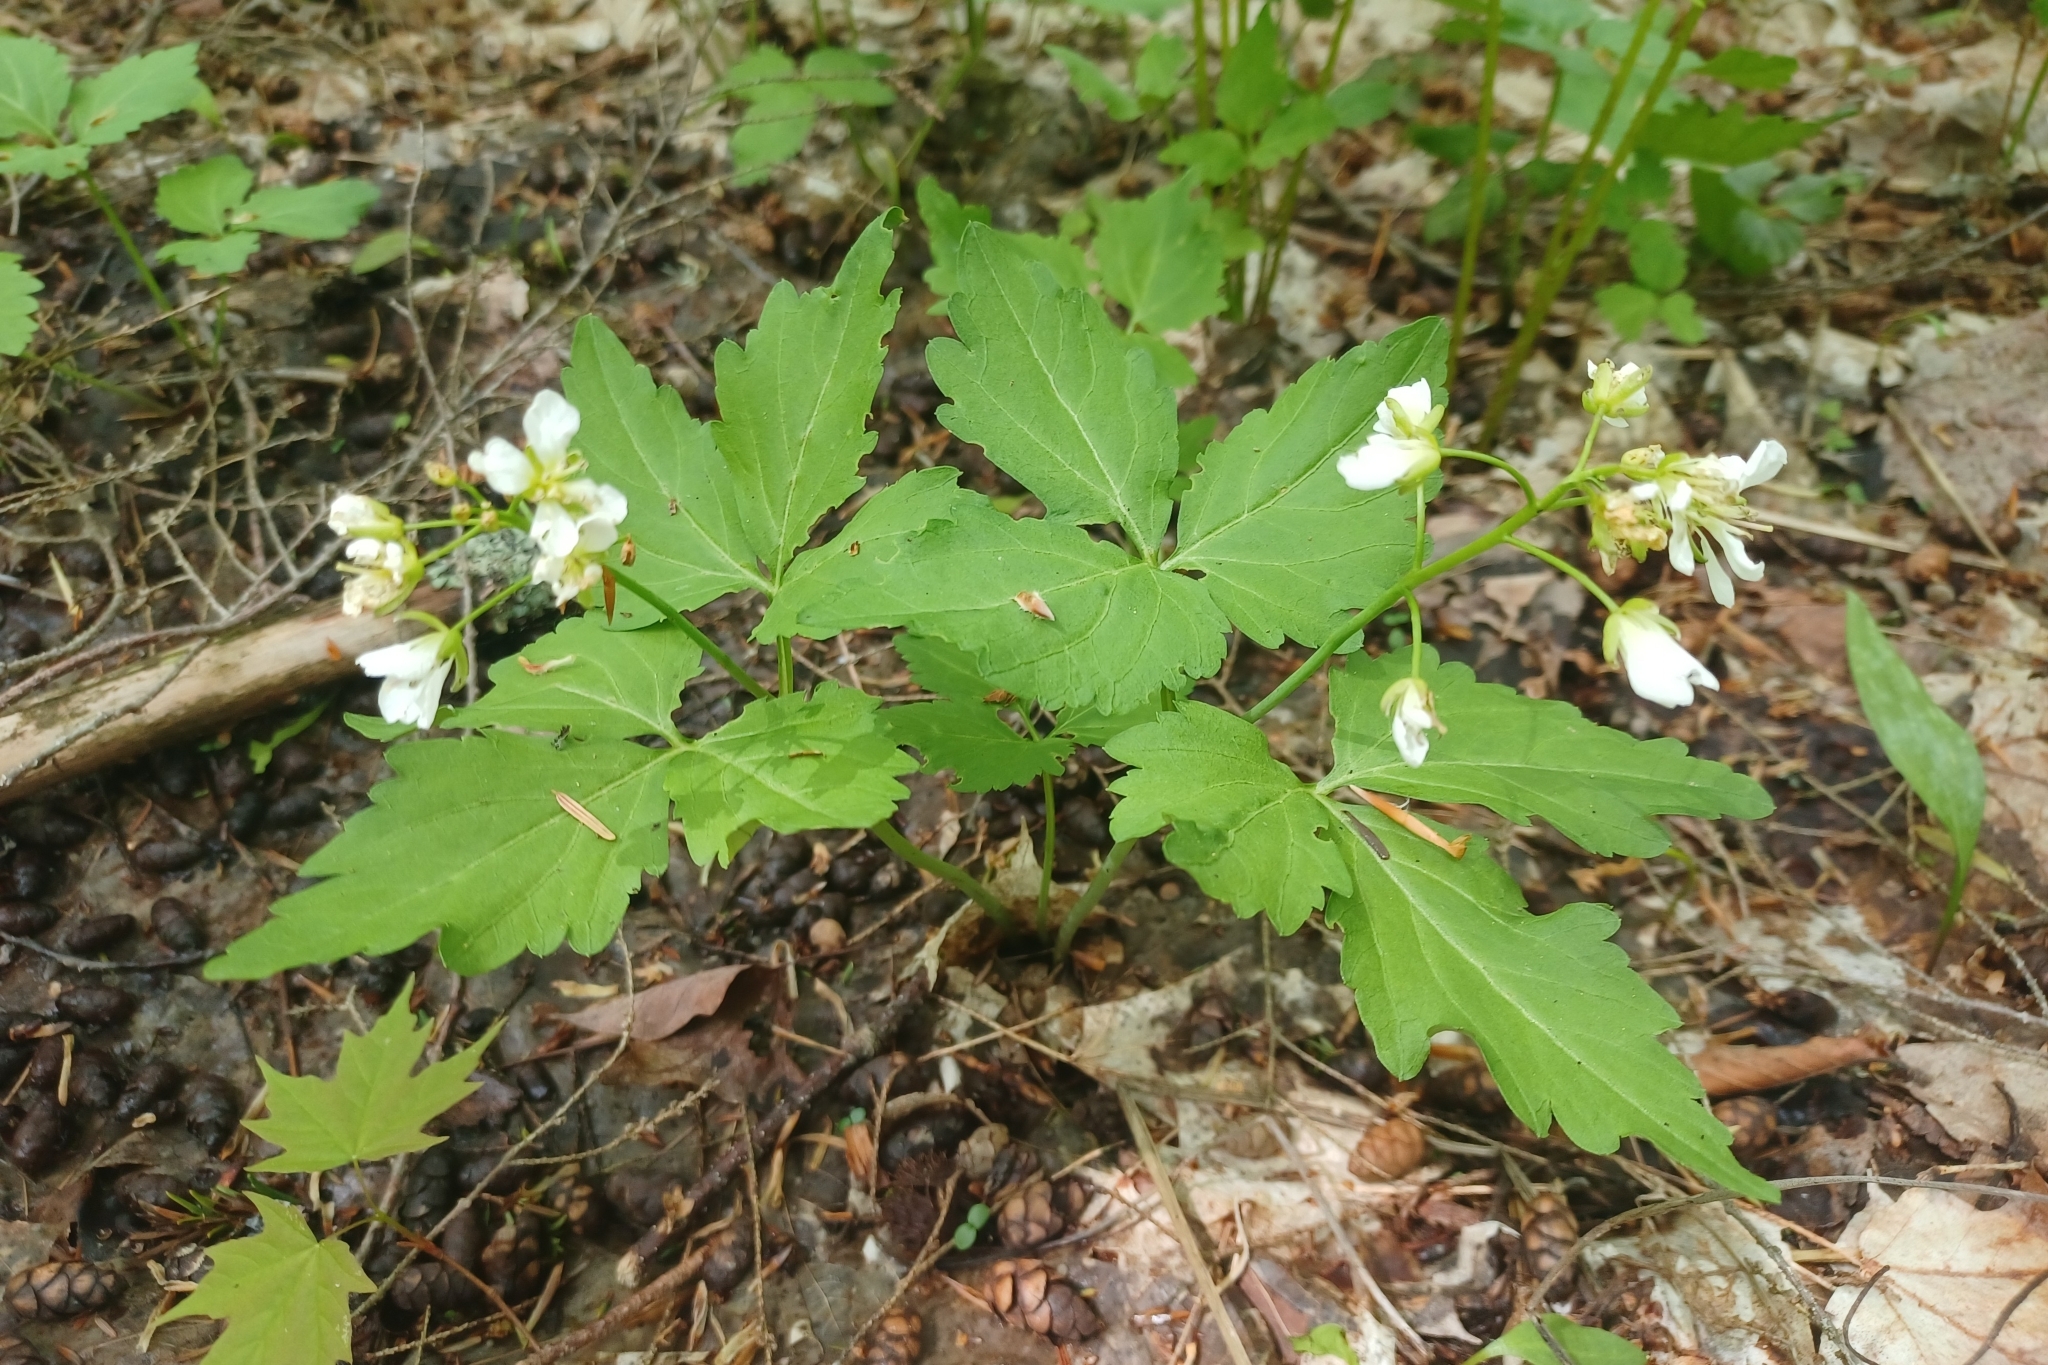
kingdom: Plantae
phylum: Tracheophyta
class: Magnoliopsida
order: Brassicales
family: Brassicaceae
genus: Cardamine
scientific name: Cardamine diphylla
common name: Broad-leaved toothwort
